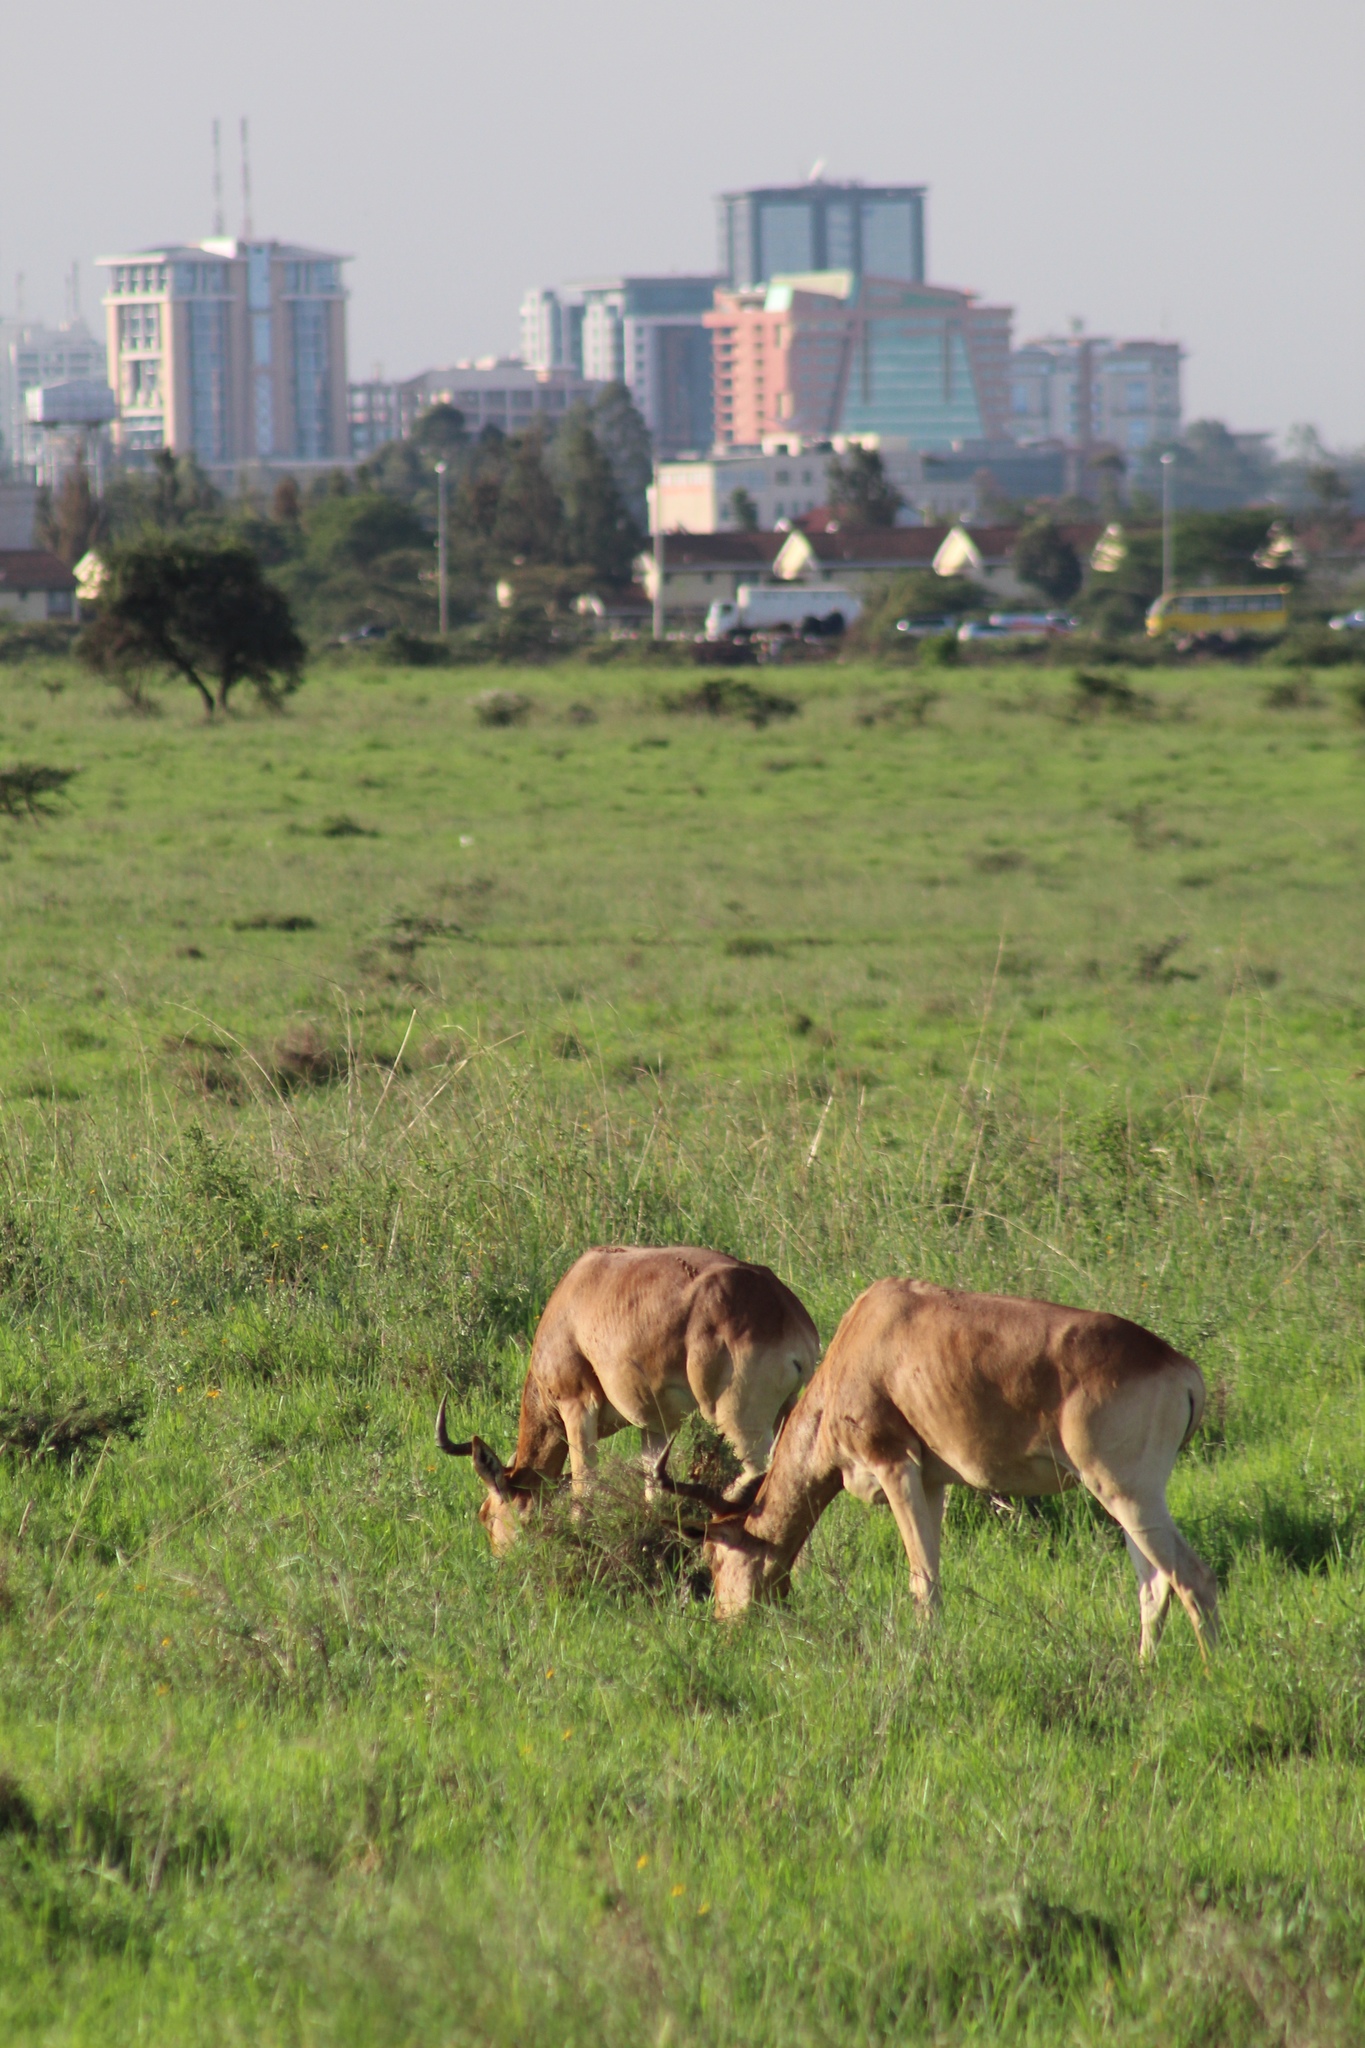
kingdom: Animalia
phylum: Chordata
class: Mammalia
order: Artiodactyla
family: Bovidae
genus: Alcelaphus
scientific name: Alcelaphus buselaphus
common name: Hartebeest
